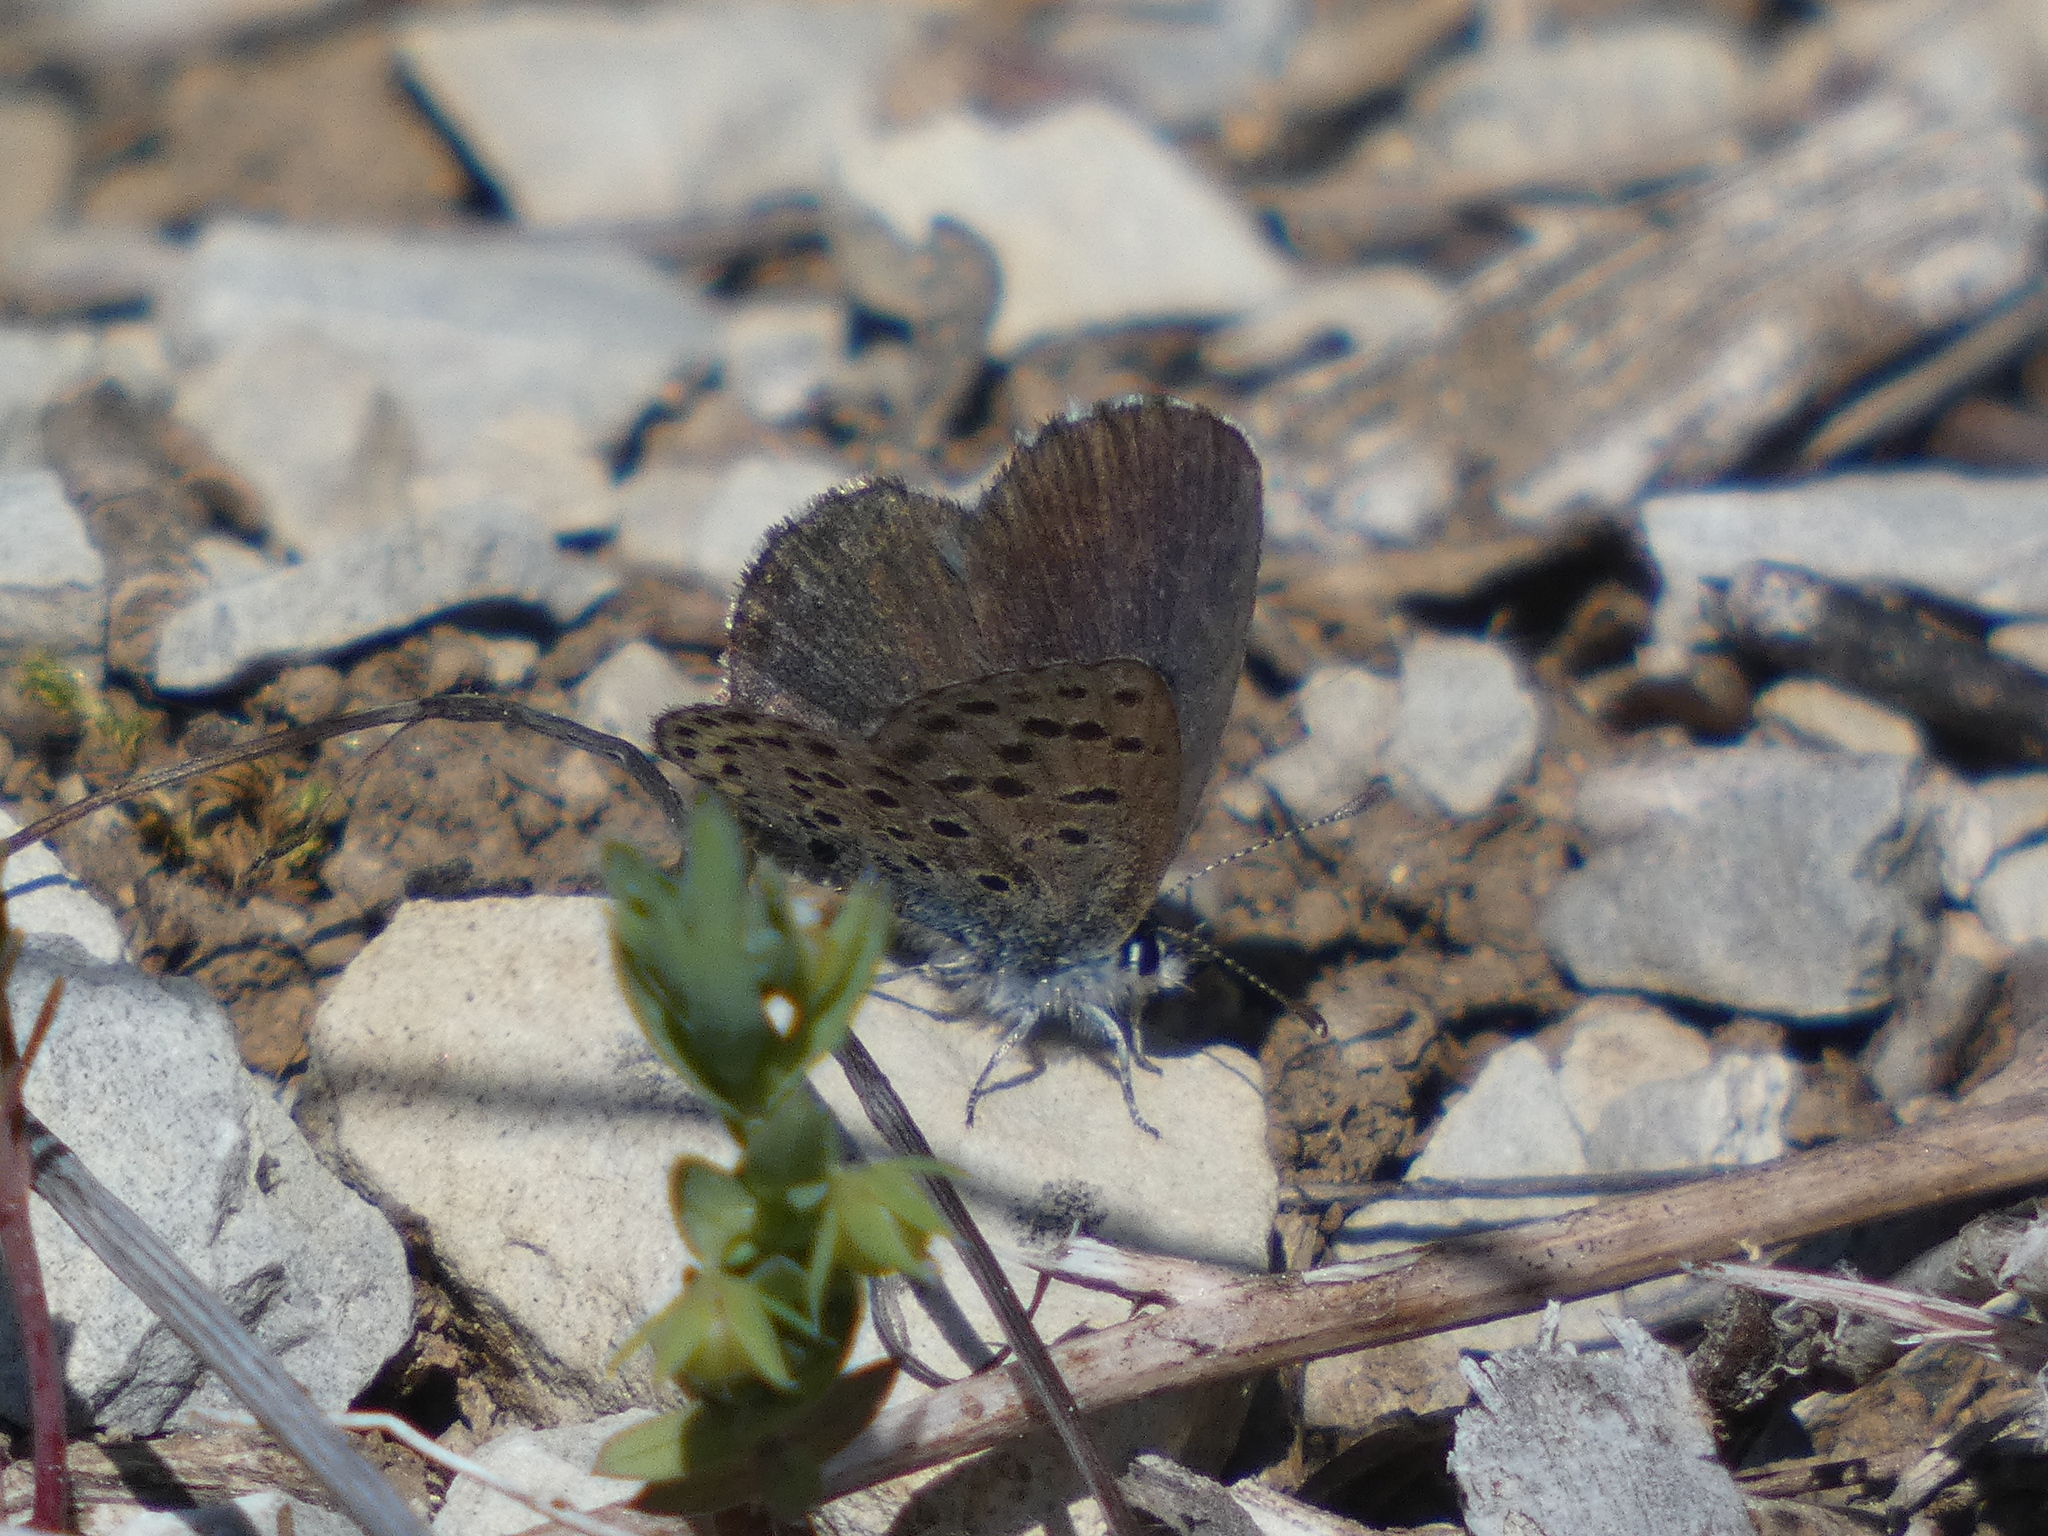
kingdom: Animalia
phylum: Arthropoda
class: Insecta
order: Lepidoptera
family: Lycaenidae
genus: Pseudophilotes
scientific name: Pseudophilotes baton
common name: Baton blue
